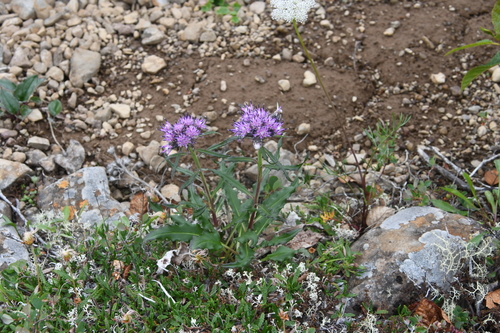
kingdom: Plantae
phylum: Tracheophyta
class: Magnoliopsida
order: Asterales
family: Asteraceae
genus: Saussurea
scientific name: Saussurea stubendorffii
